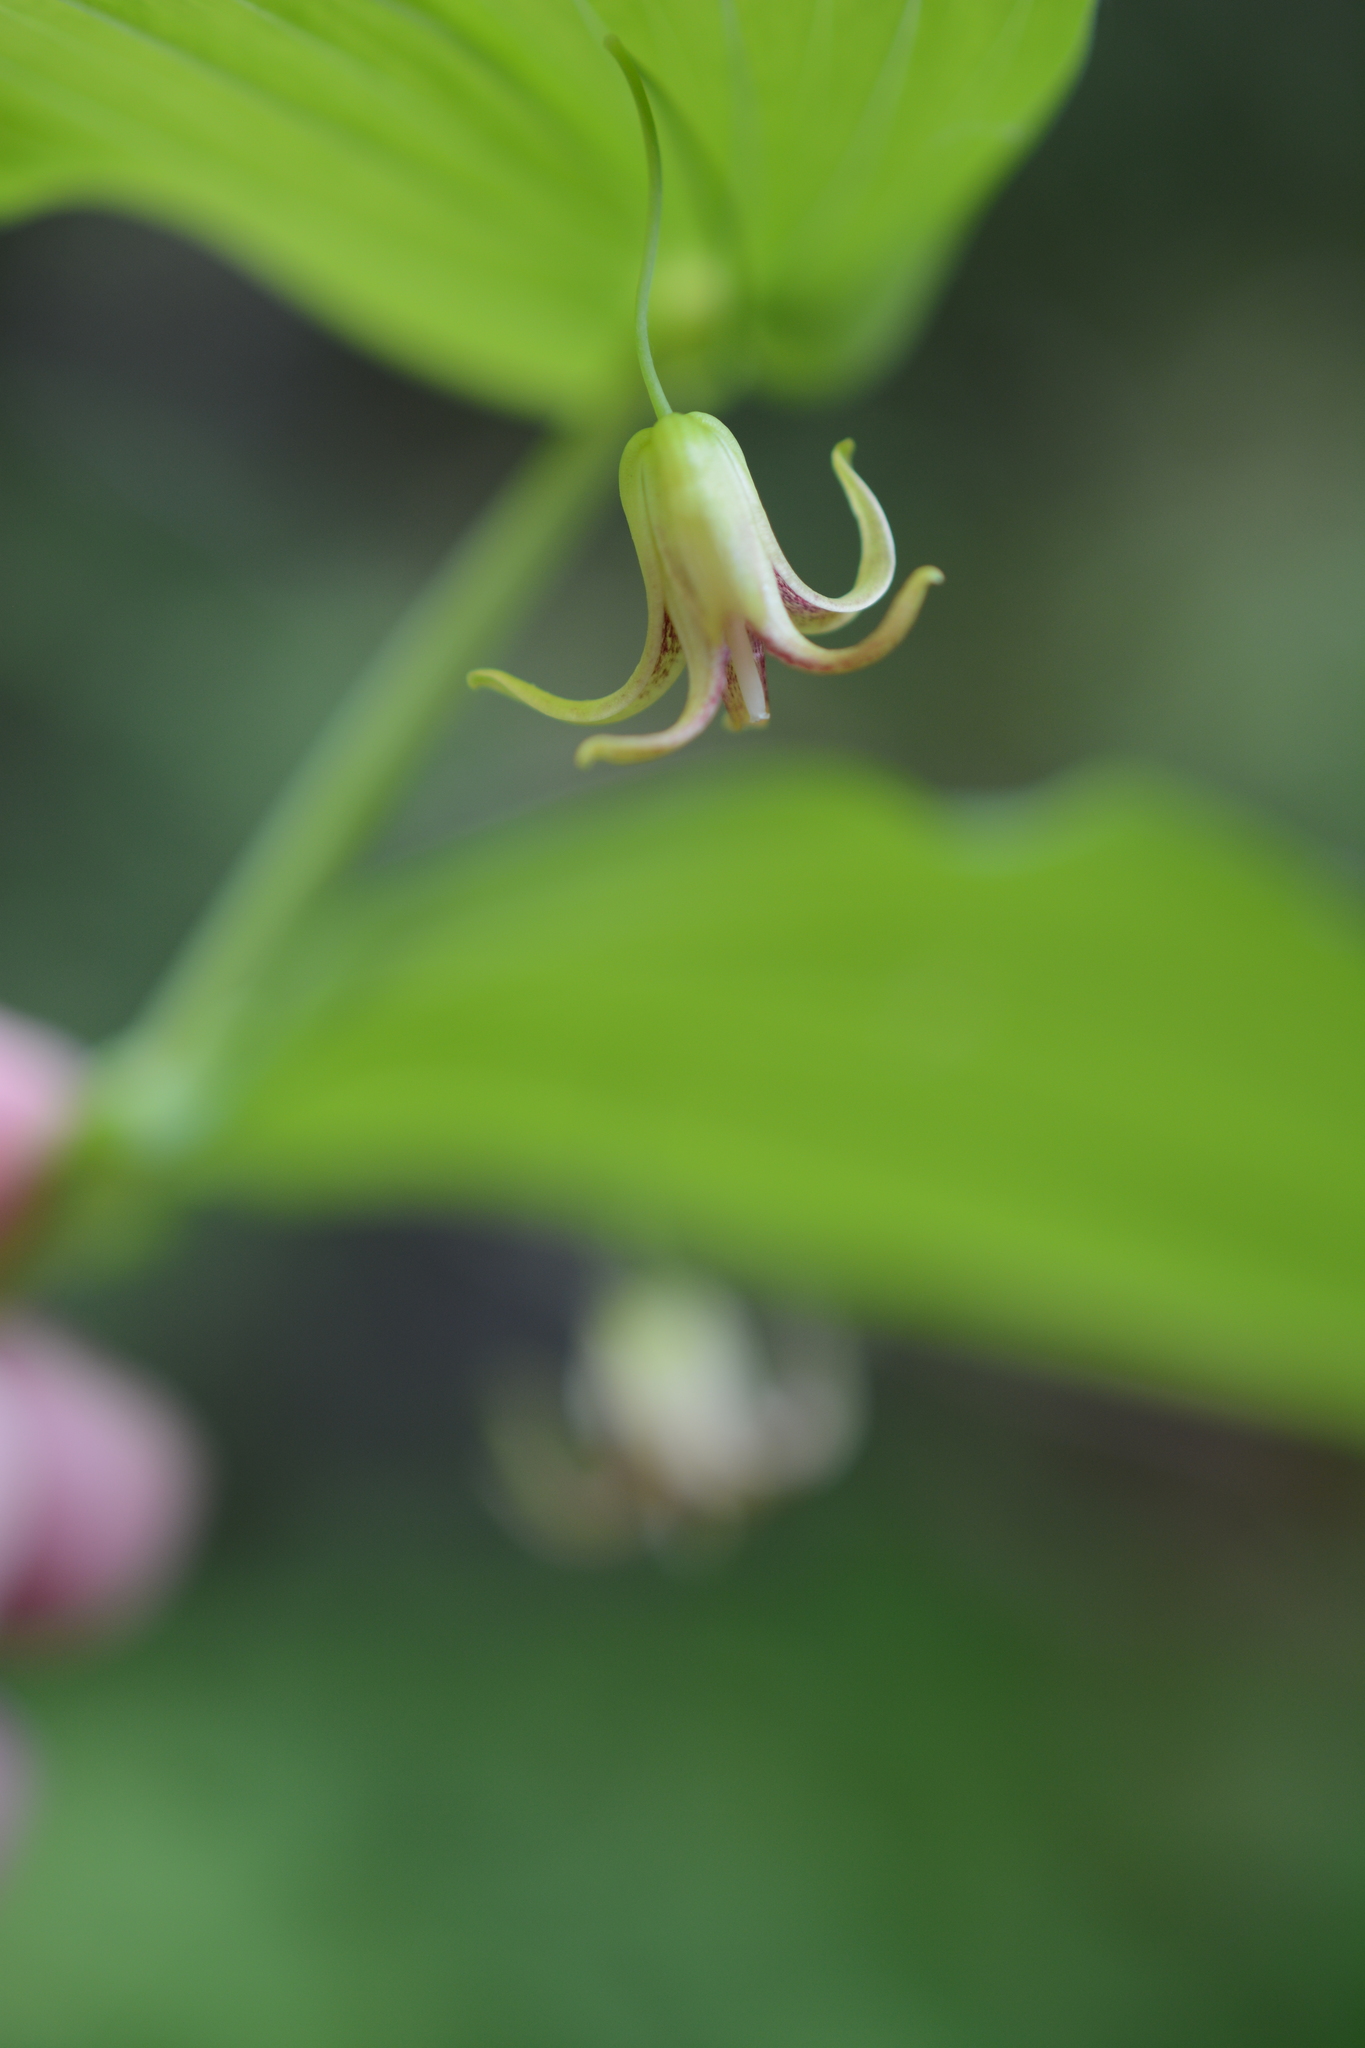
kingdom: Plantae
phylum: Tracheophyta
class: Liliopsida
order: Liliales
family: Liliaceae
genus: Streptopus
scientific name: Streptopus amplexifolius
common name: Clasp twisted stalk
